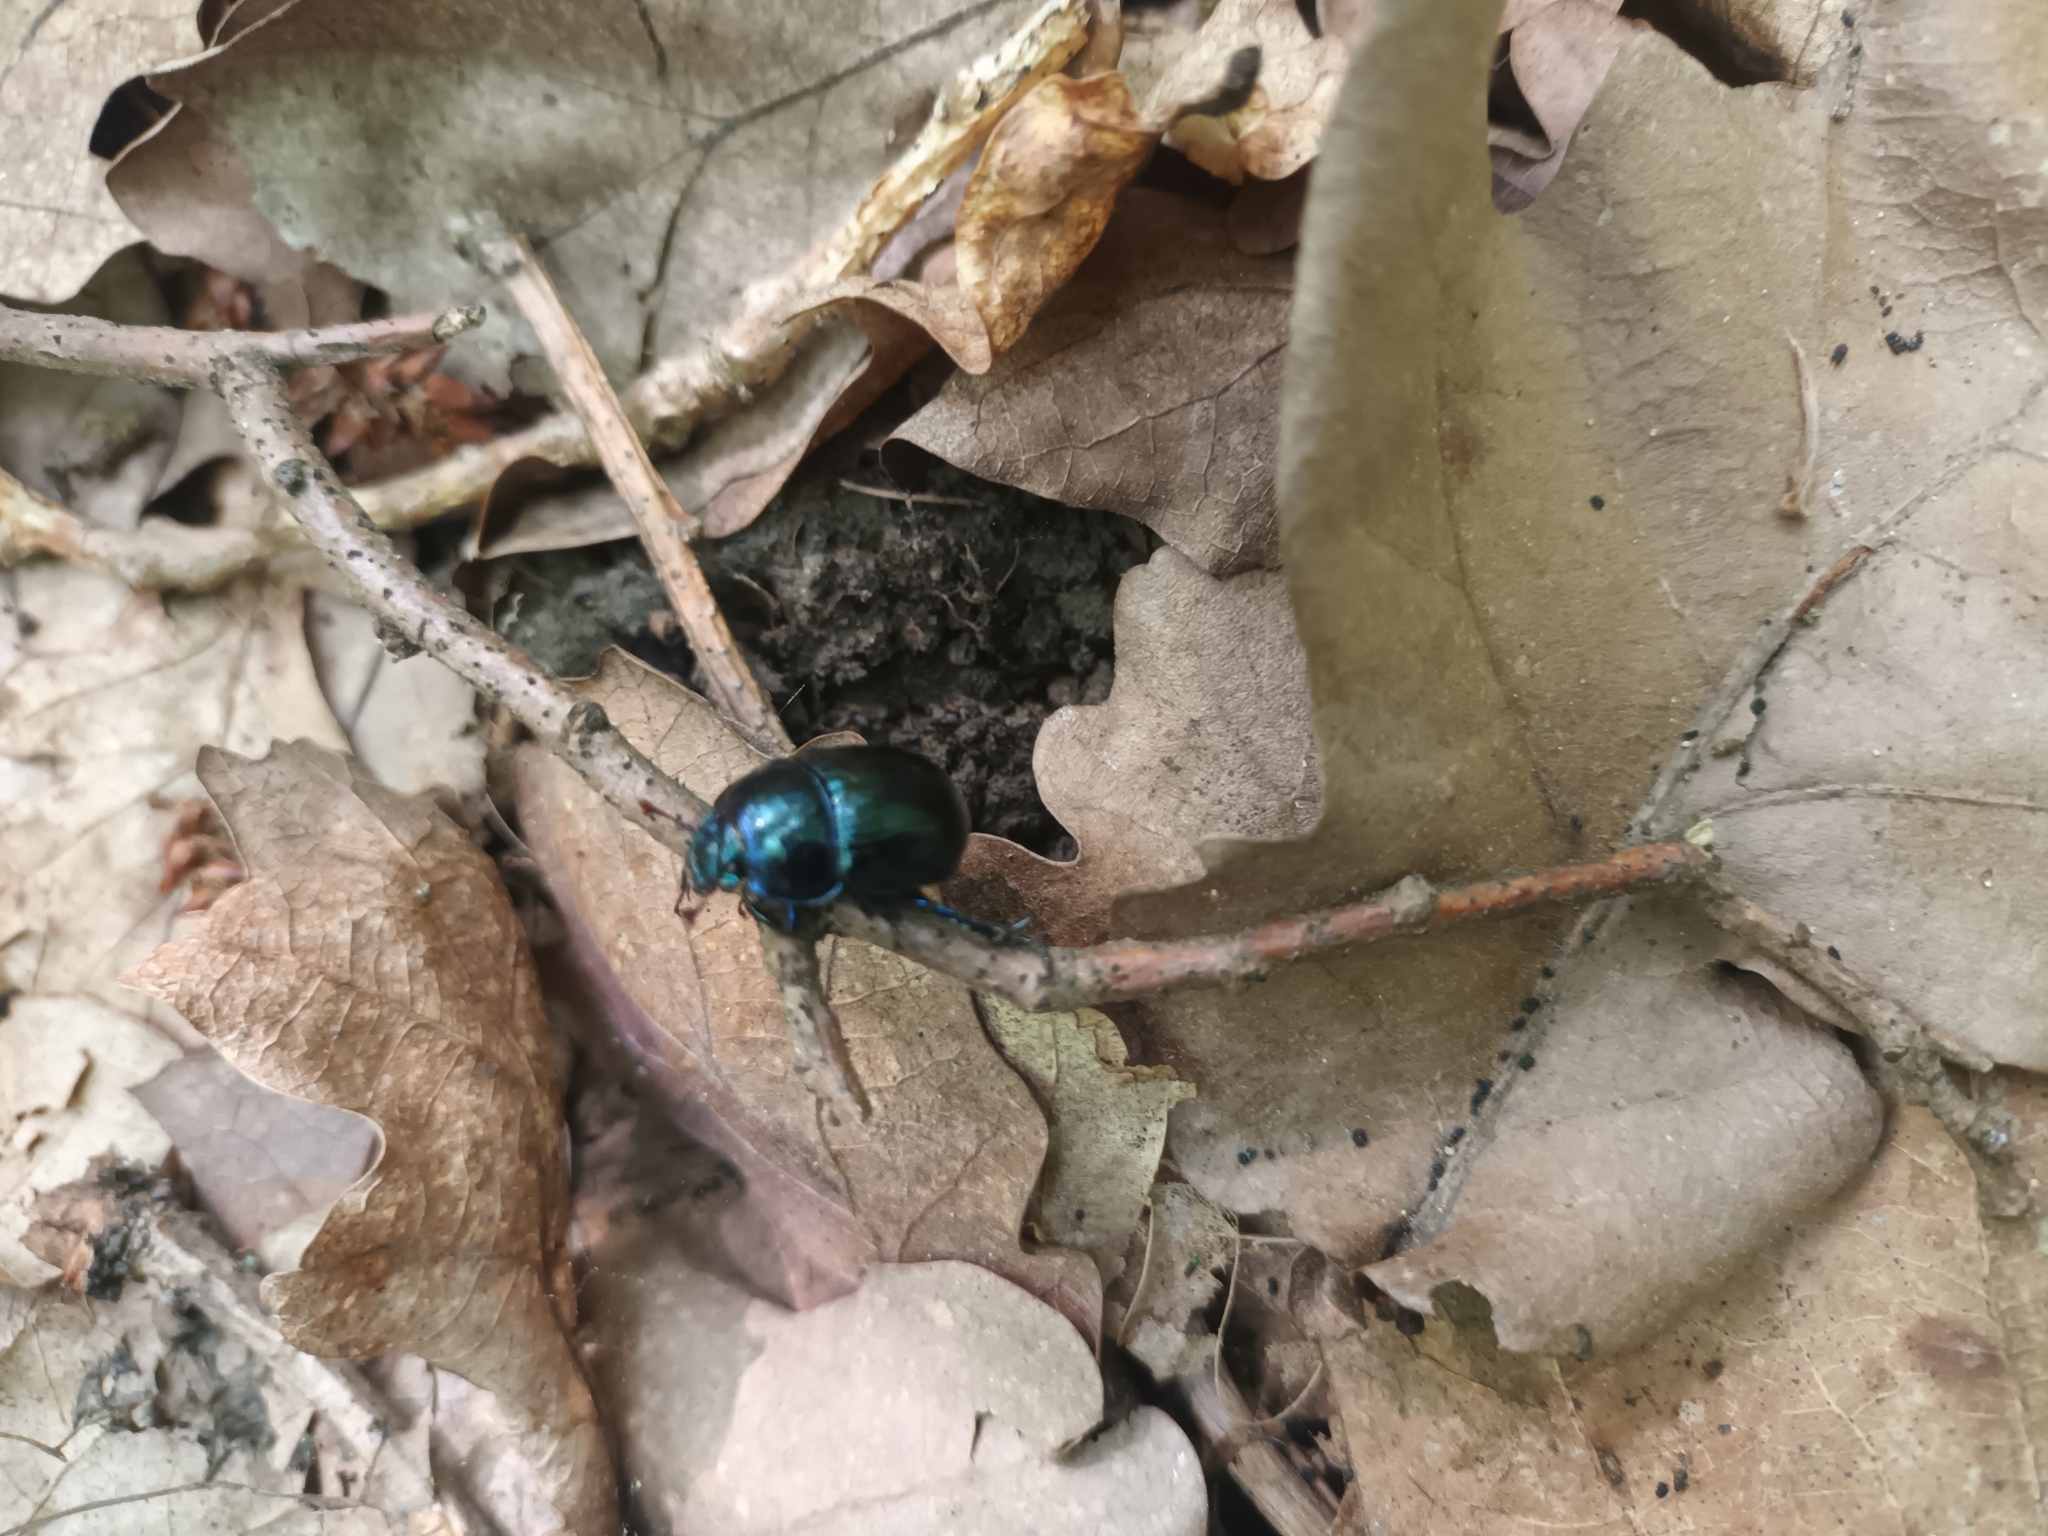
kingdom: Animalia
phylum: Arthropoda
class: Insecta
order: Coleoptera
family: Geotrupidae
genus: Anoplotrupes
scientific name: Anoplotrupes stercorosus
